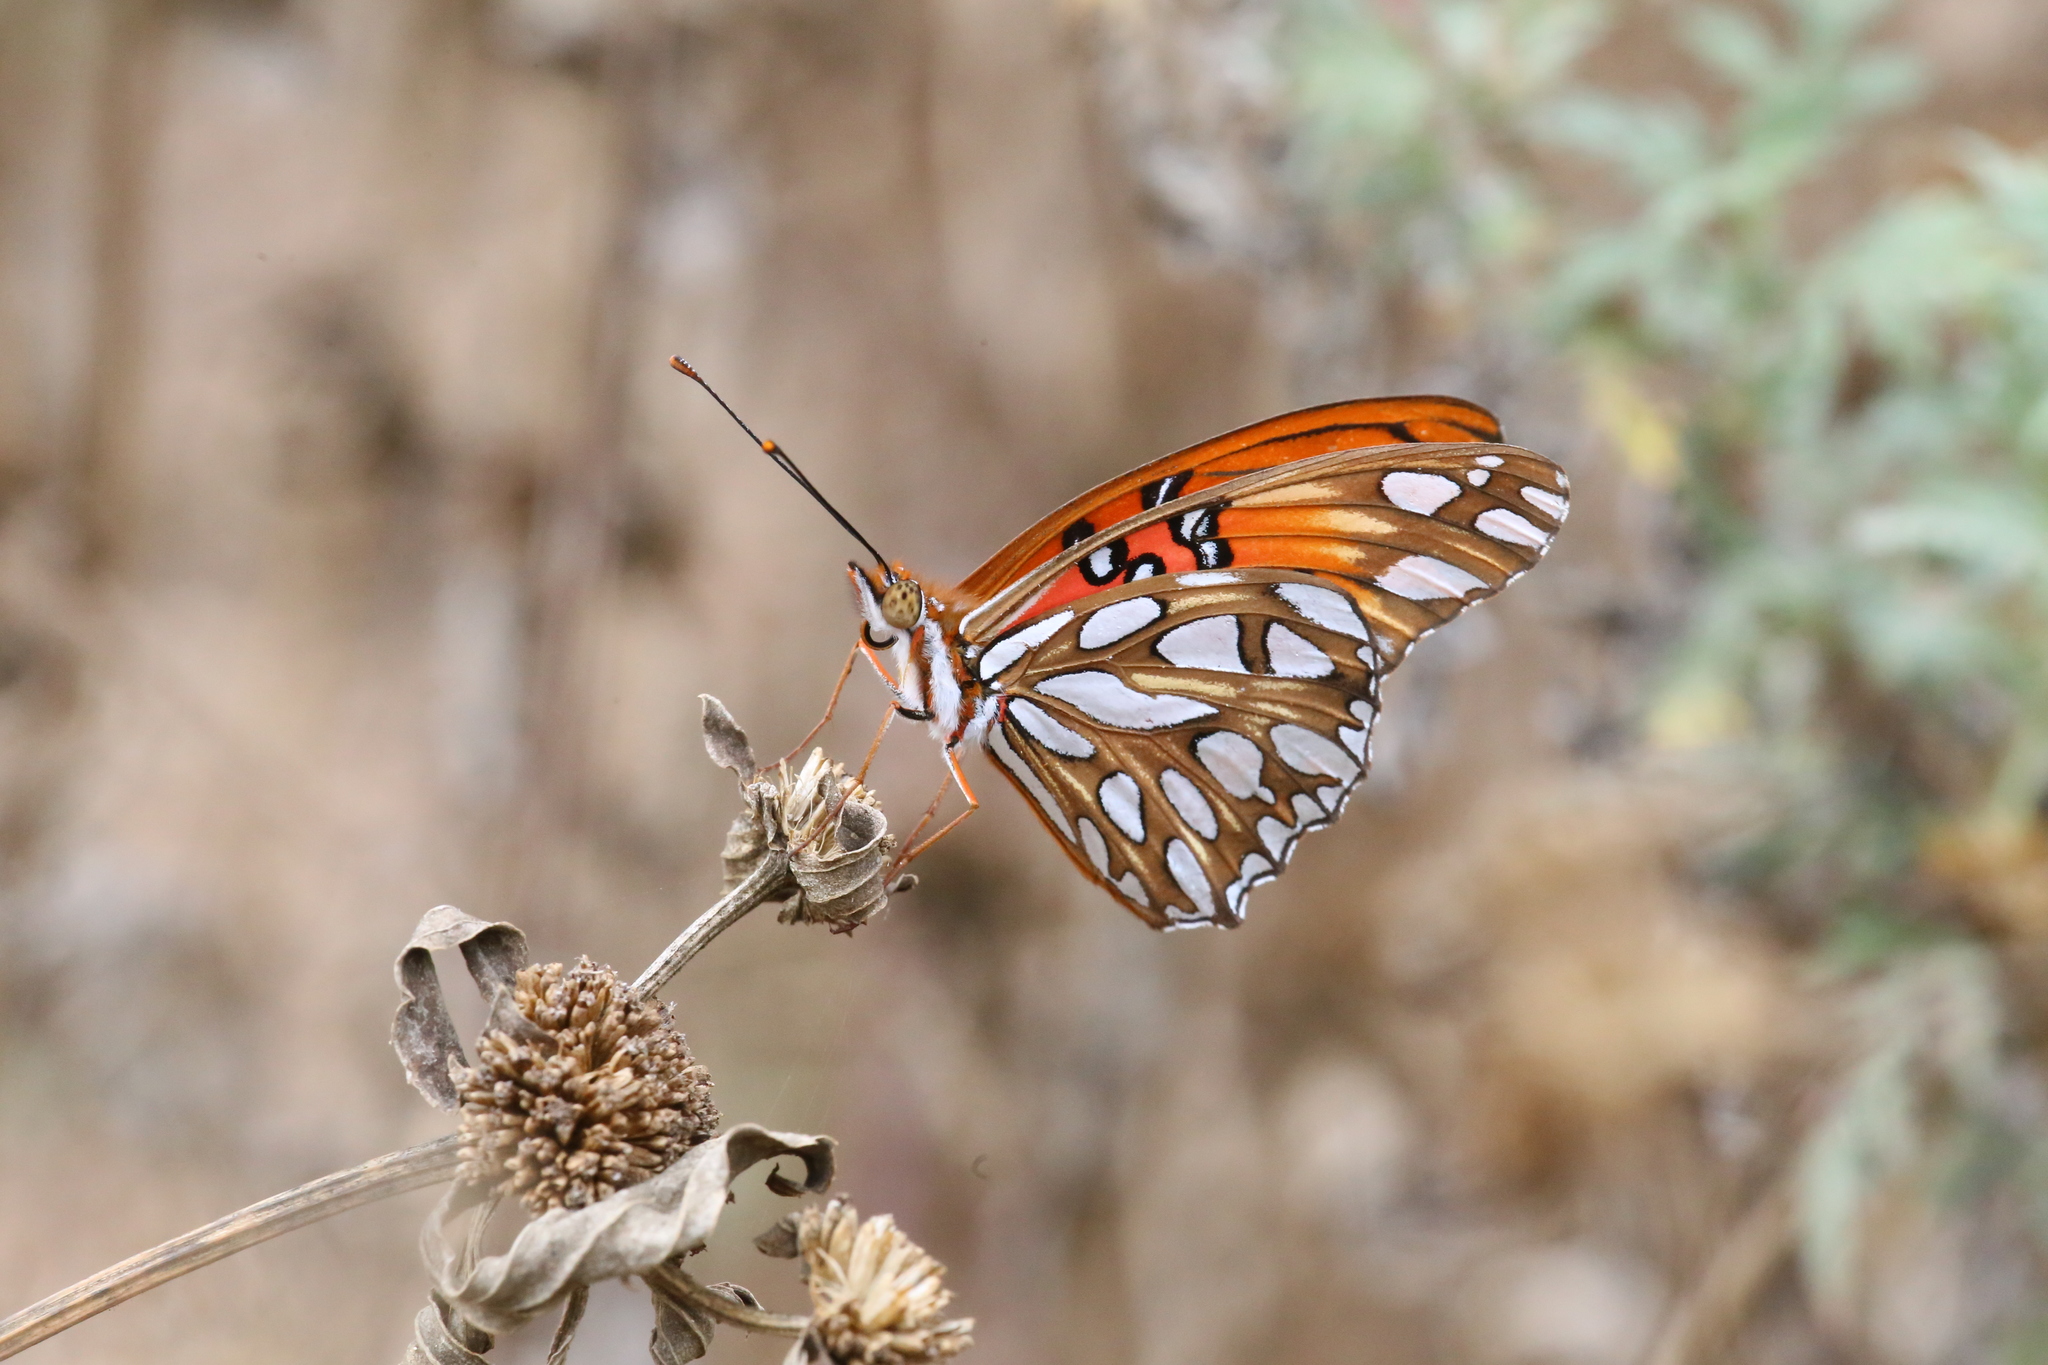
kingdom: Animalia
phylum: Arthropoda
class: Insecta
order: Lepidoptera
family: Nymphalidae
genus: Dione
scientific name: Dione vanillae
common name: Gulf fritillary
